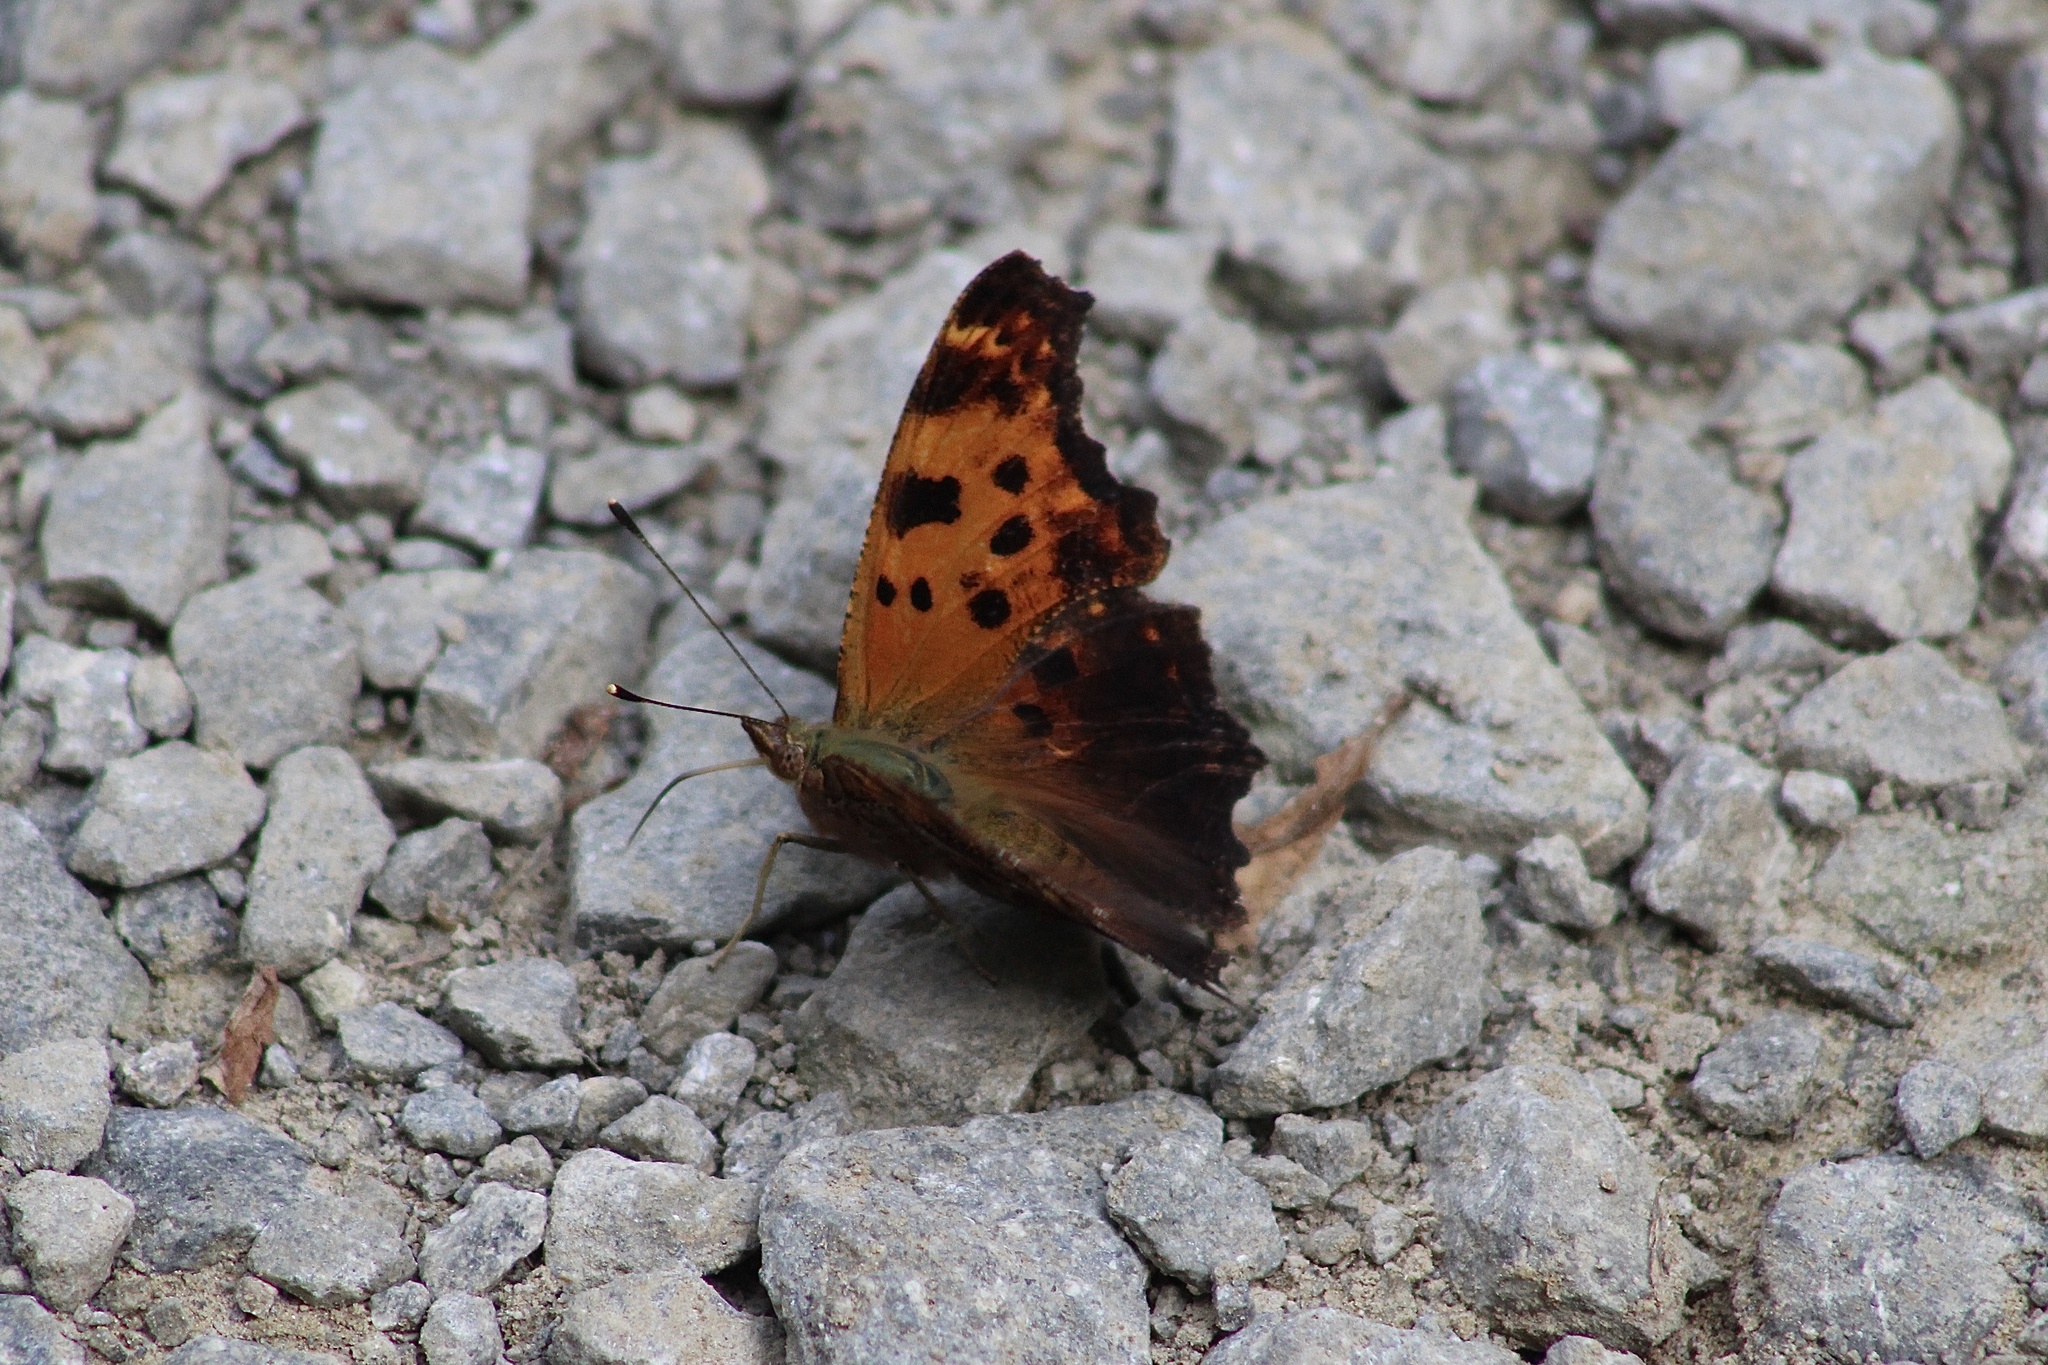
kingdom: Animalia
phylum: Arthropoda
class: Insecta
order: Lepidoptera
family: Nymphalidae
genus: Polygonia
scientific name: Polygonia comma
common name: Eastern comma
